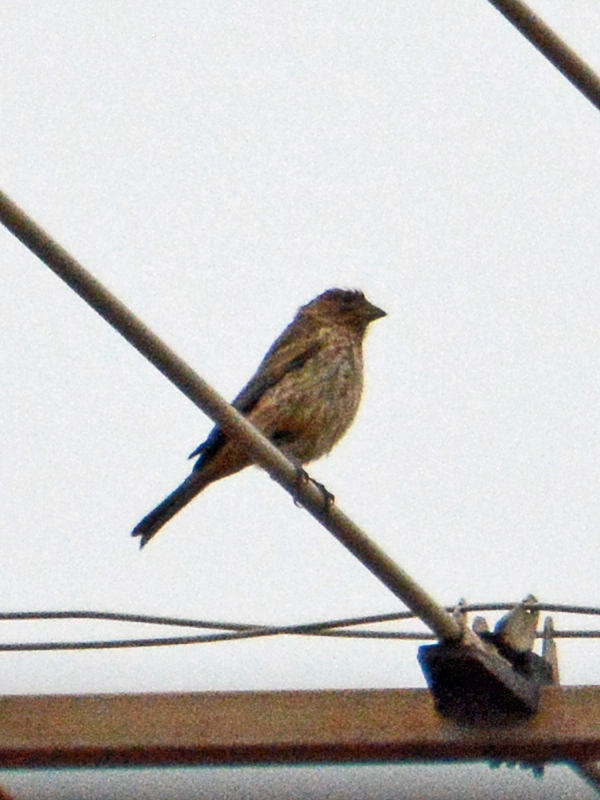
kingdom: Animalia
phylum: Chordata
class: Aves
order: Passeriformes
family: Fringillidae
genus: Haemorhous
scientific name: Haemorhous mexicanus
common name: House finch
